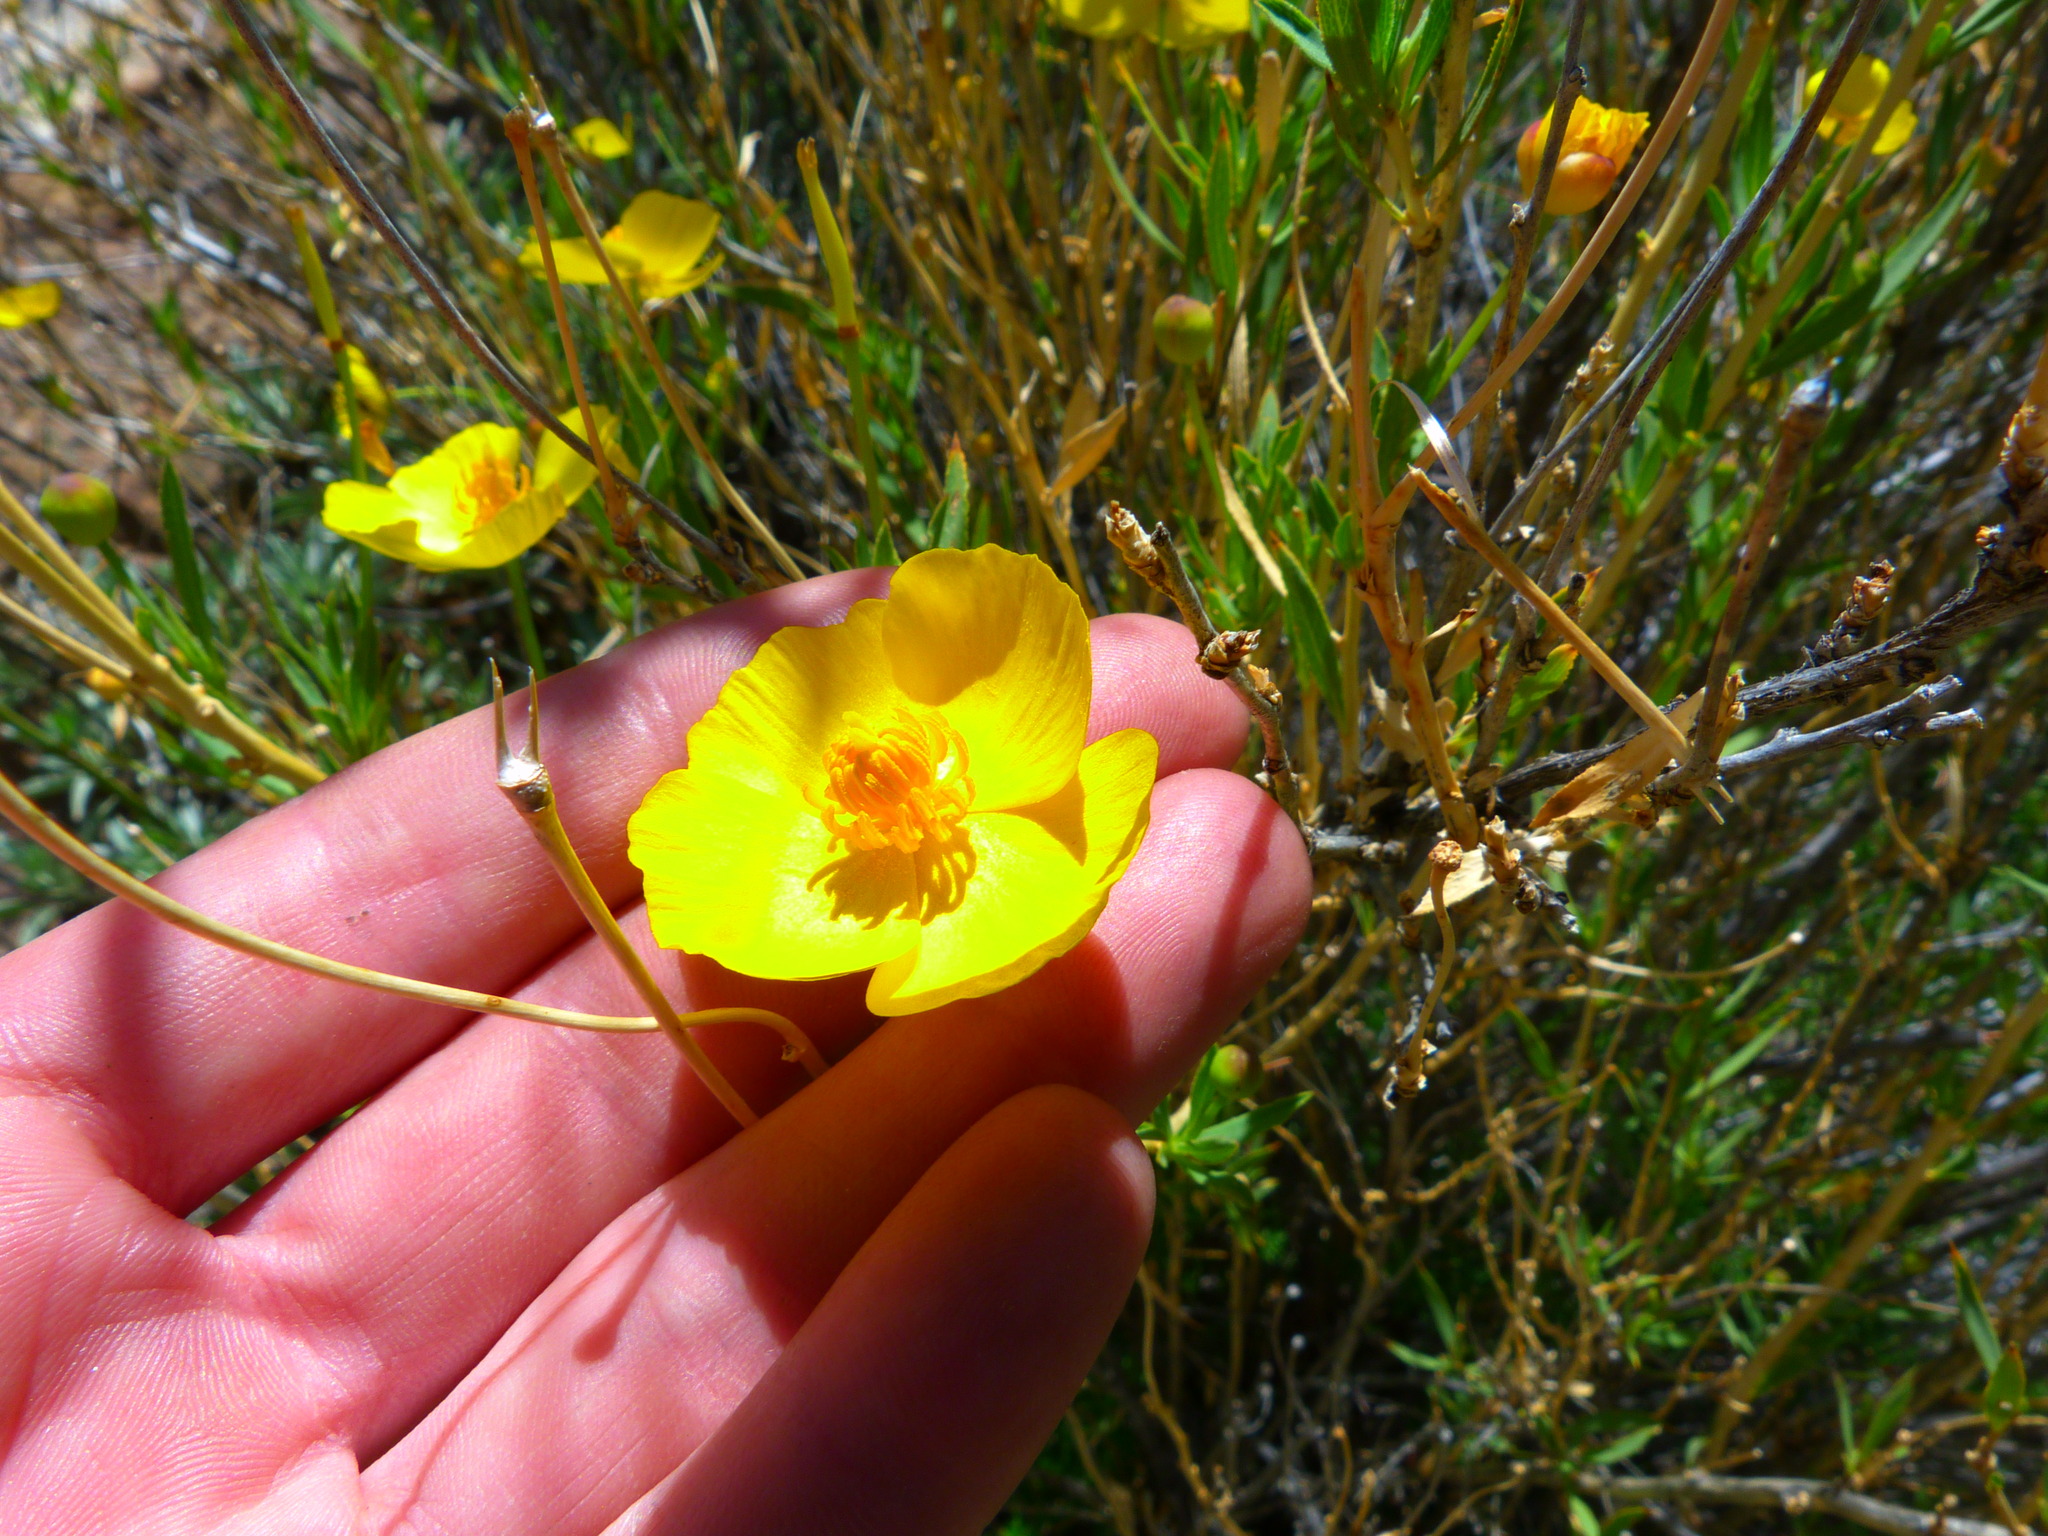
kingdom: Plantae
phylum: Tracheophyta
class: Magnoliopsida
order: Ranunculales
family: Papaveraceae
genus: Dendromecon
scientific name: Dendromecon rigida
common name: Tree poppy
